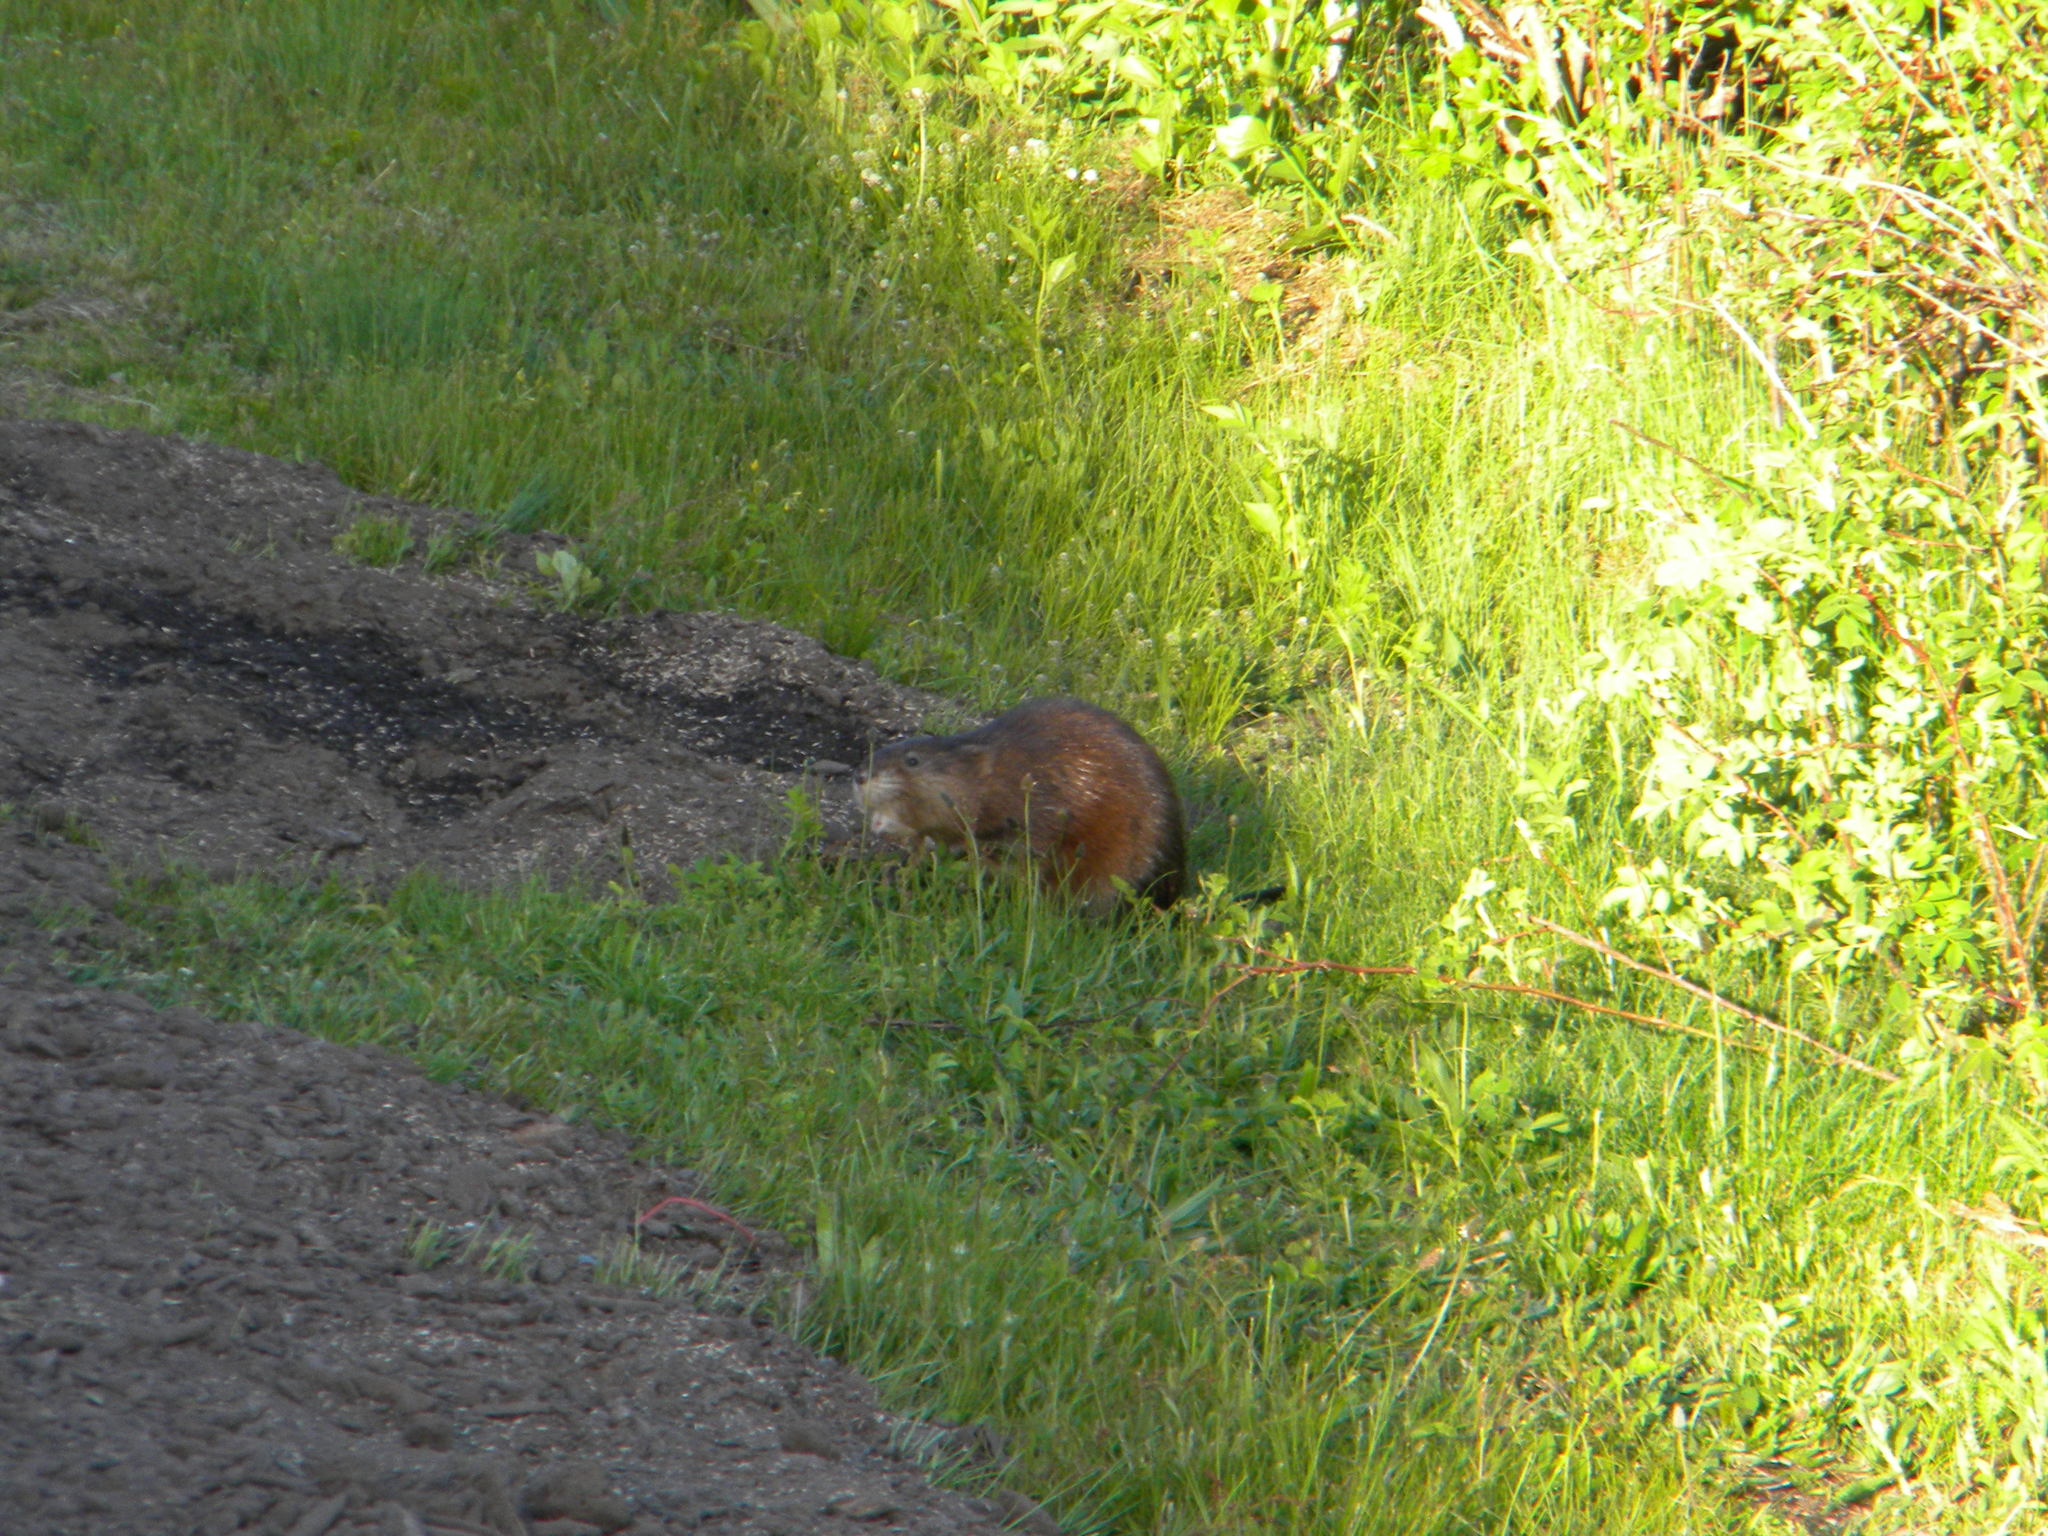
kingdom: Animalia
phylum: Chordata
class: Mammalia
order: Rodentia
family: Cricetidae
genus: Ondatra
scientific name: Ondatra zibethicus
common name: Muskrat
